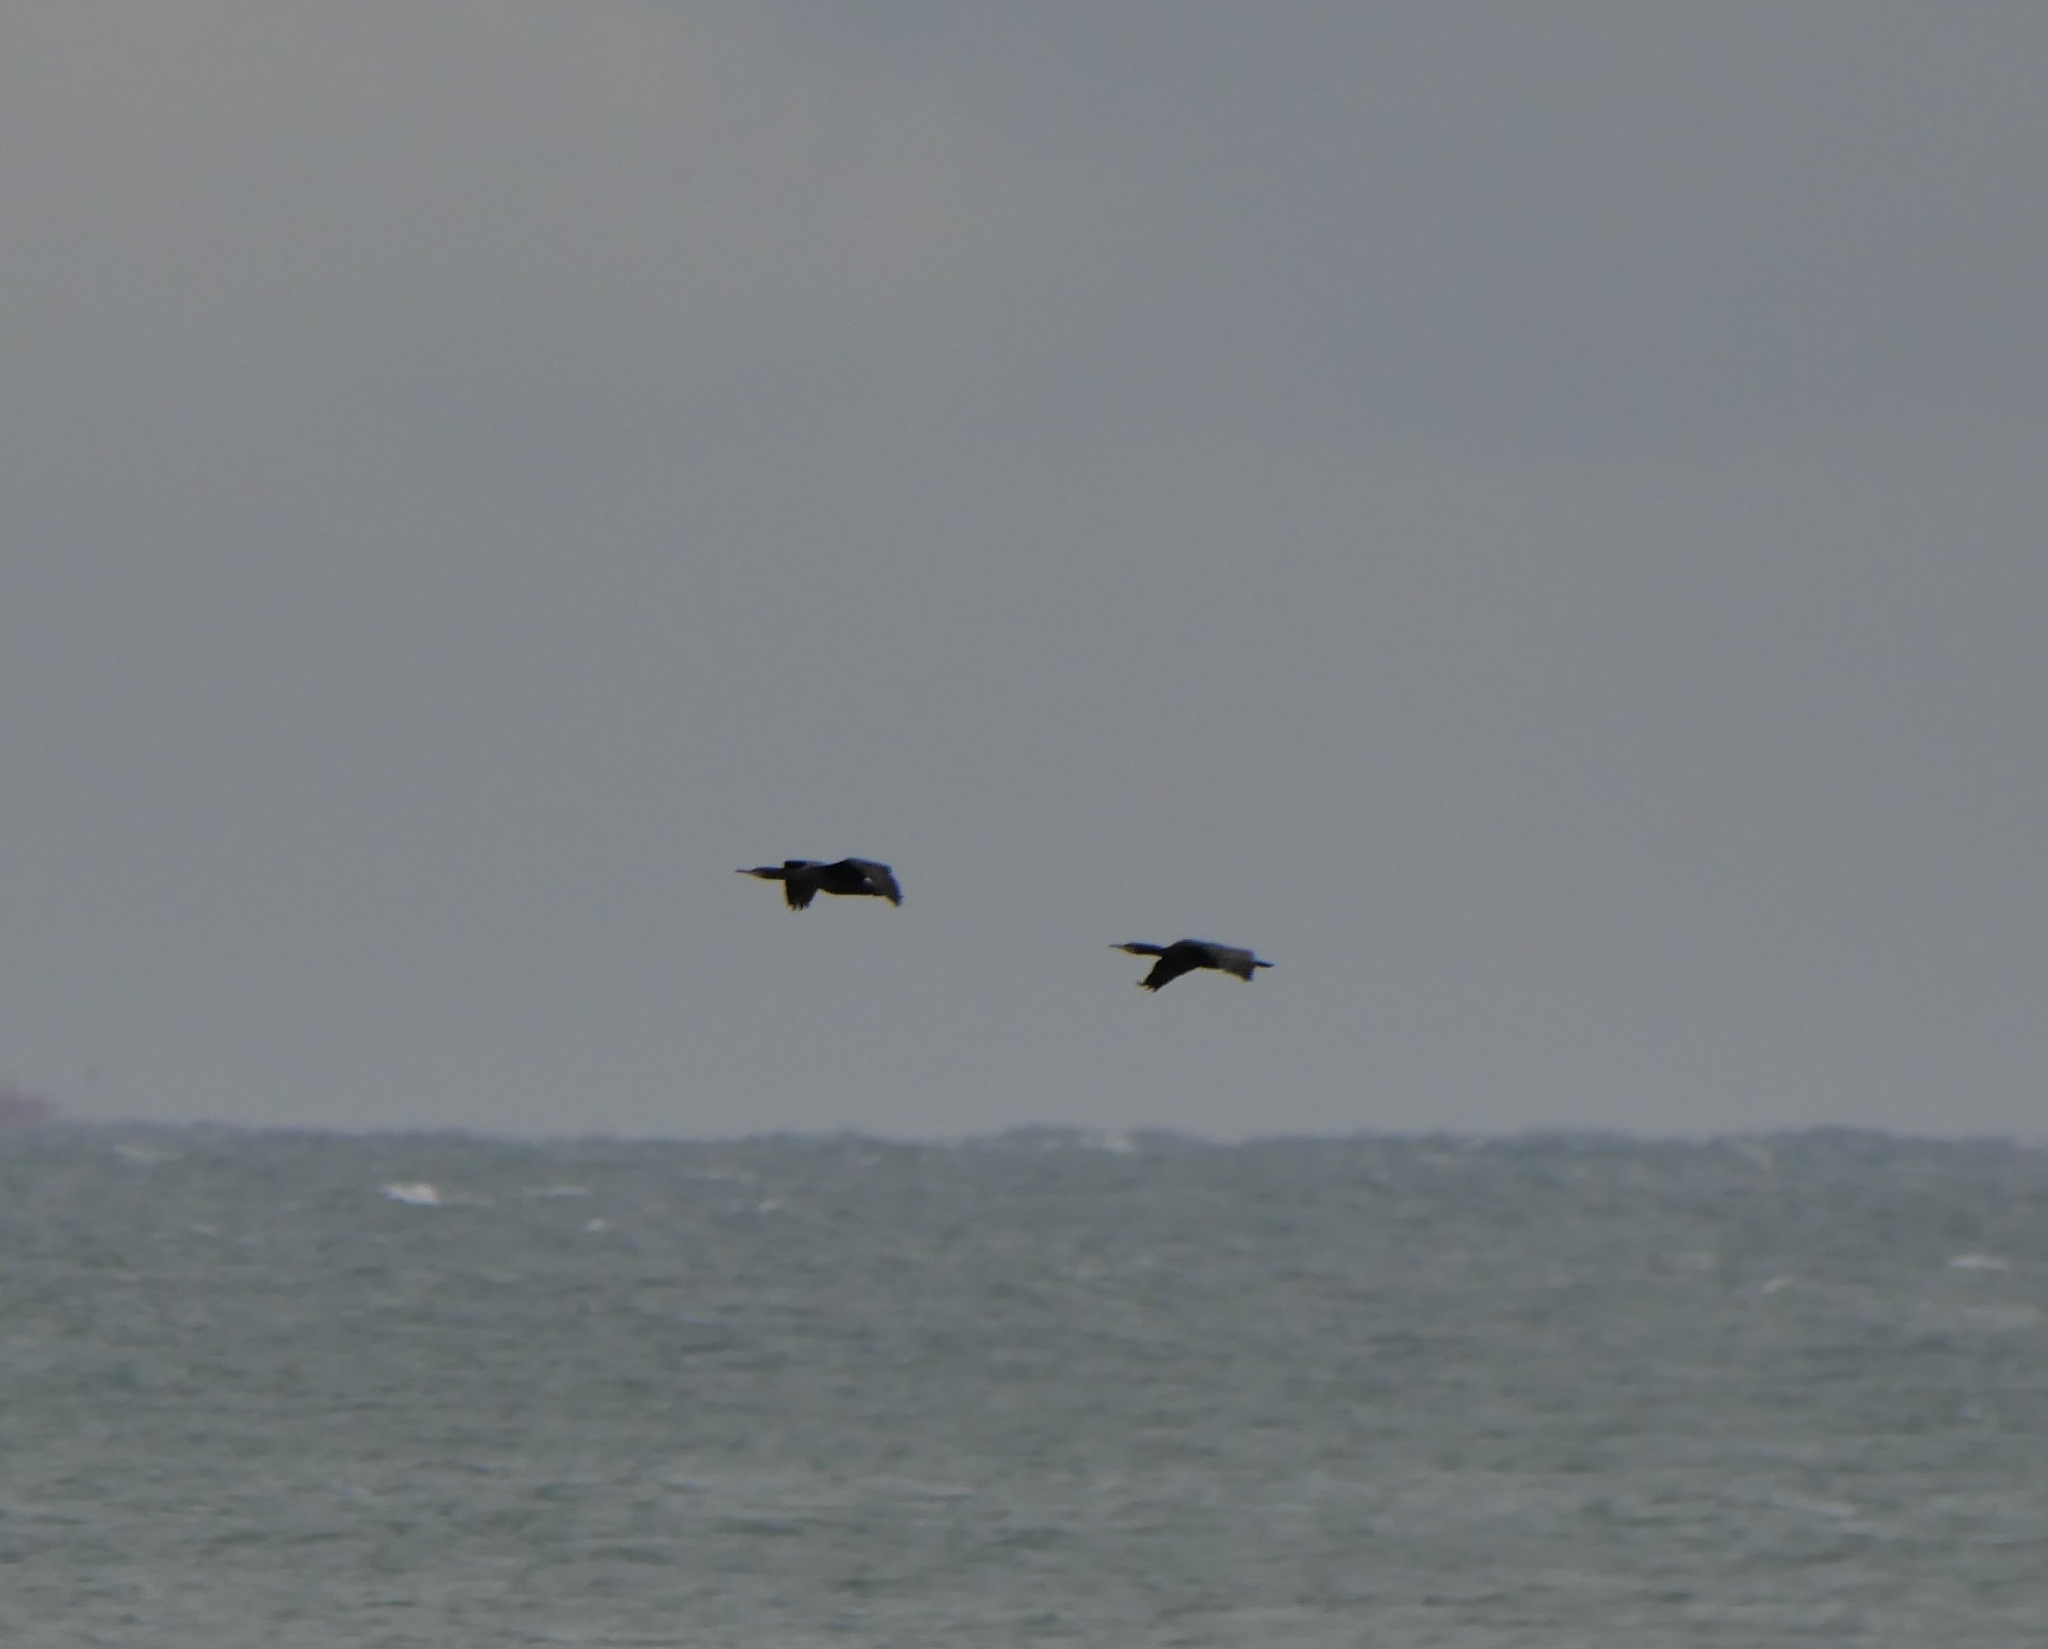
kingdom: Animalia
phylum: Chordata
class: Aves
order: Suliformes
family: Phalacrocoracidae
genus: Phalacrocorax
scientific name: Phalacrocorax capensis
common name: Cape cormorant
